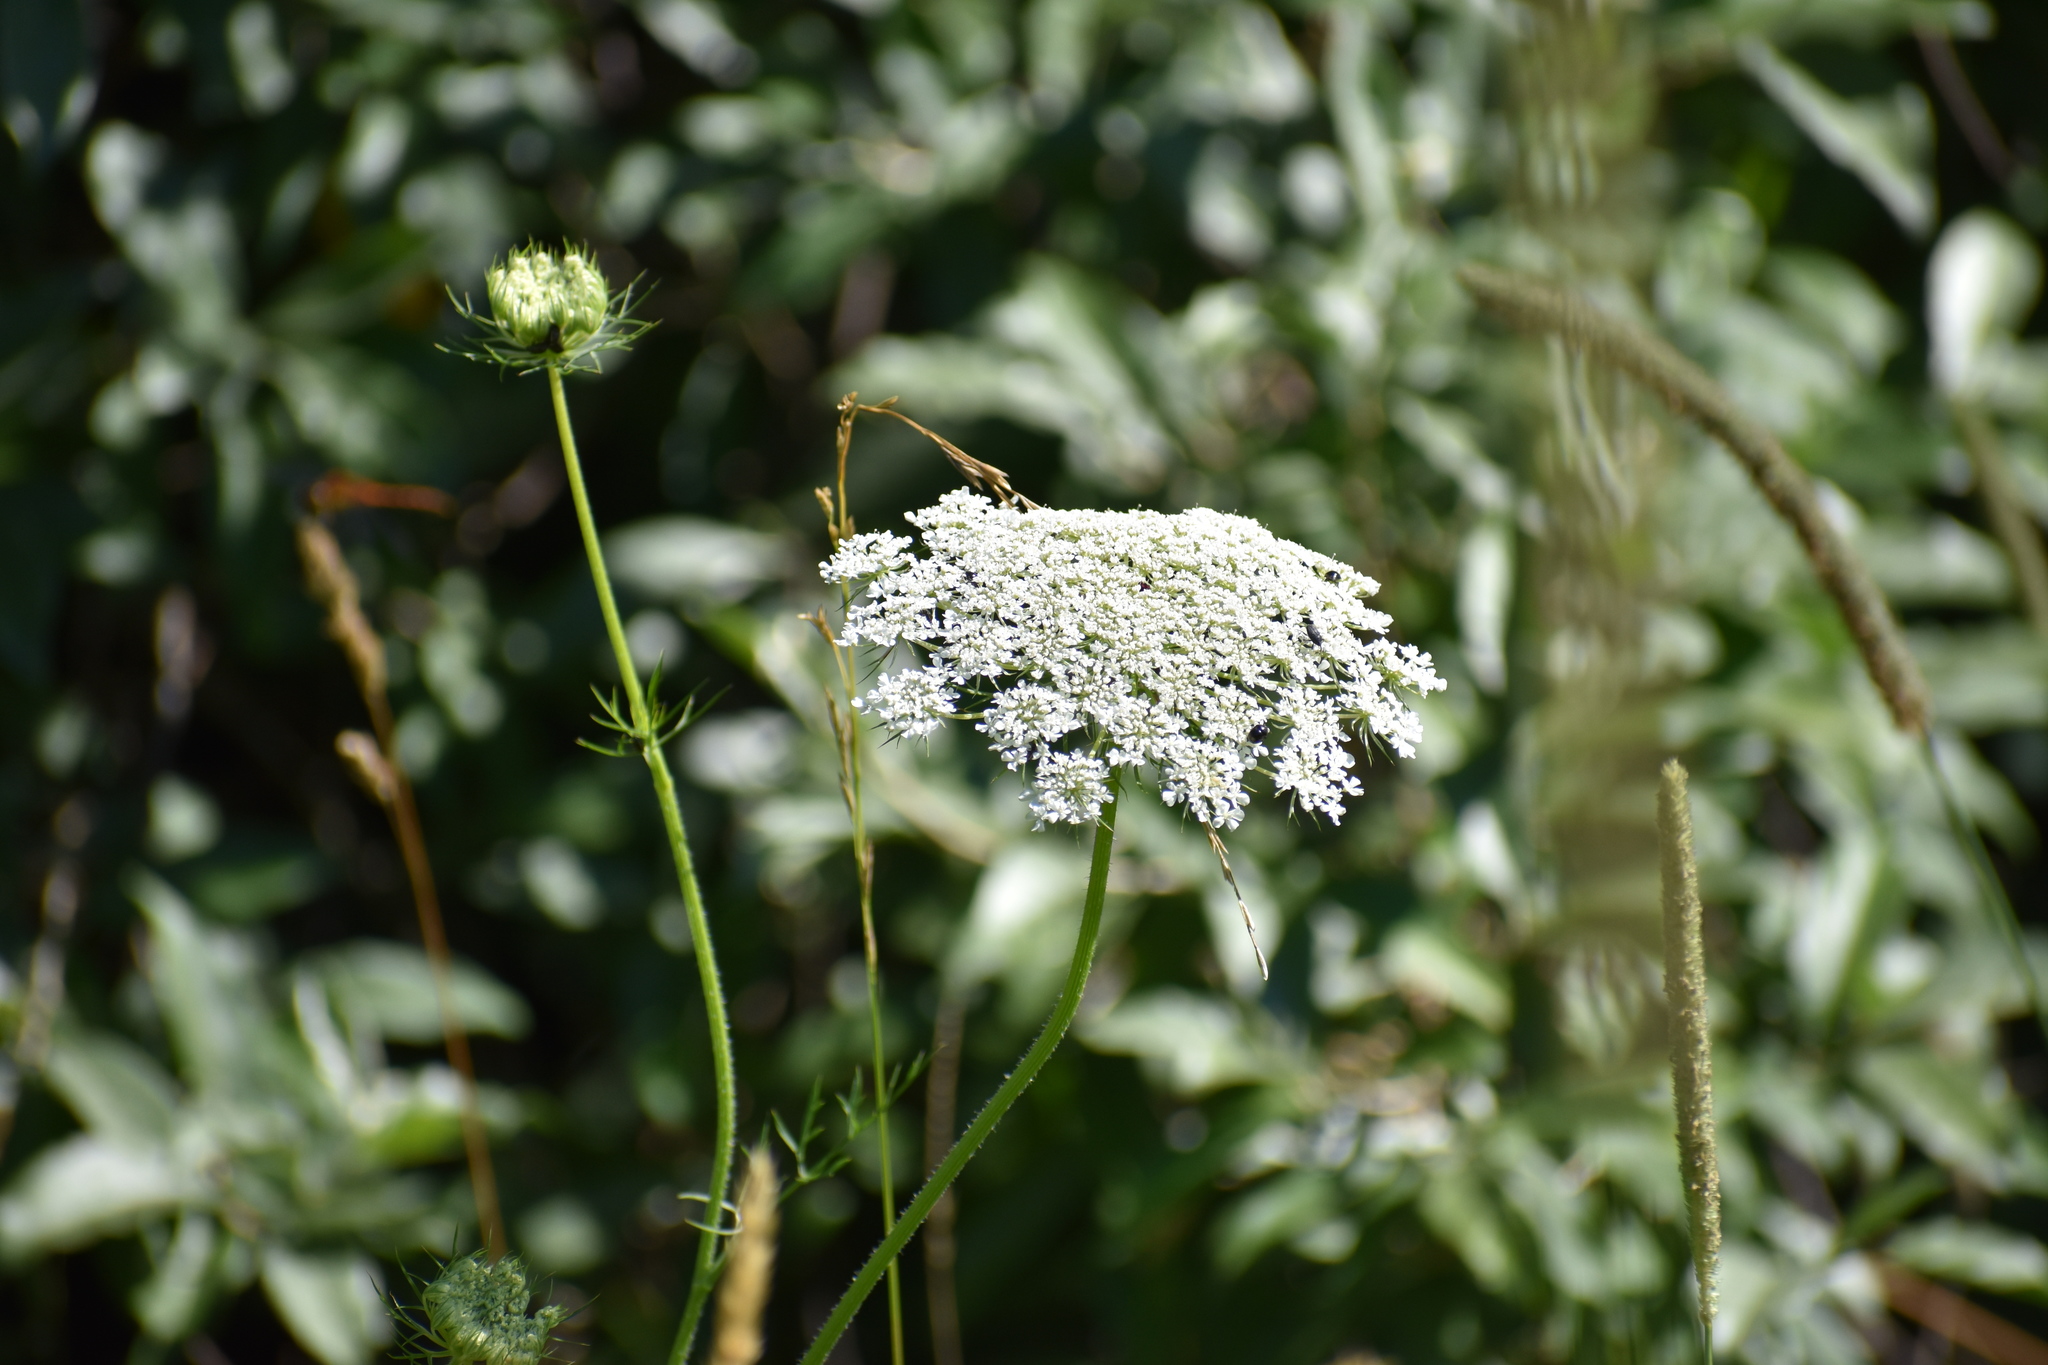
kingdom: Plantae
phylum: Tracheophyta
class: Magnoliopsida
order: Apiales
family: Apiaceae
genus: Daucus
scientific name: Daucus carota
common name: Wild carrot
